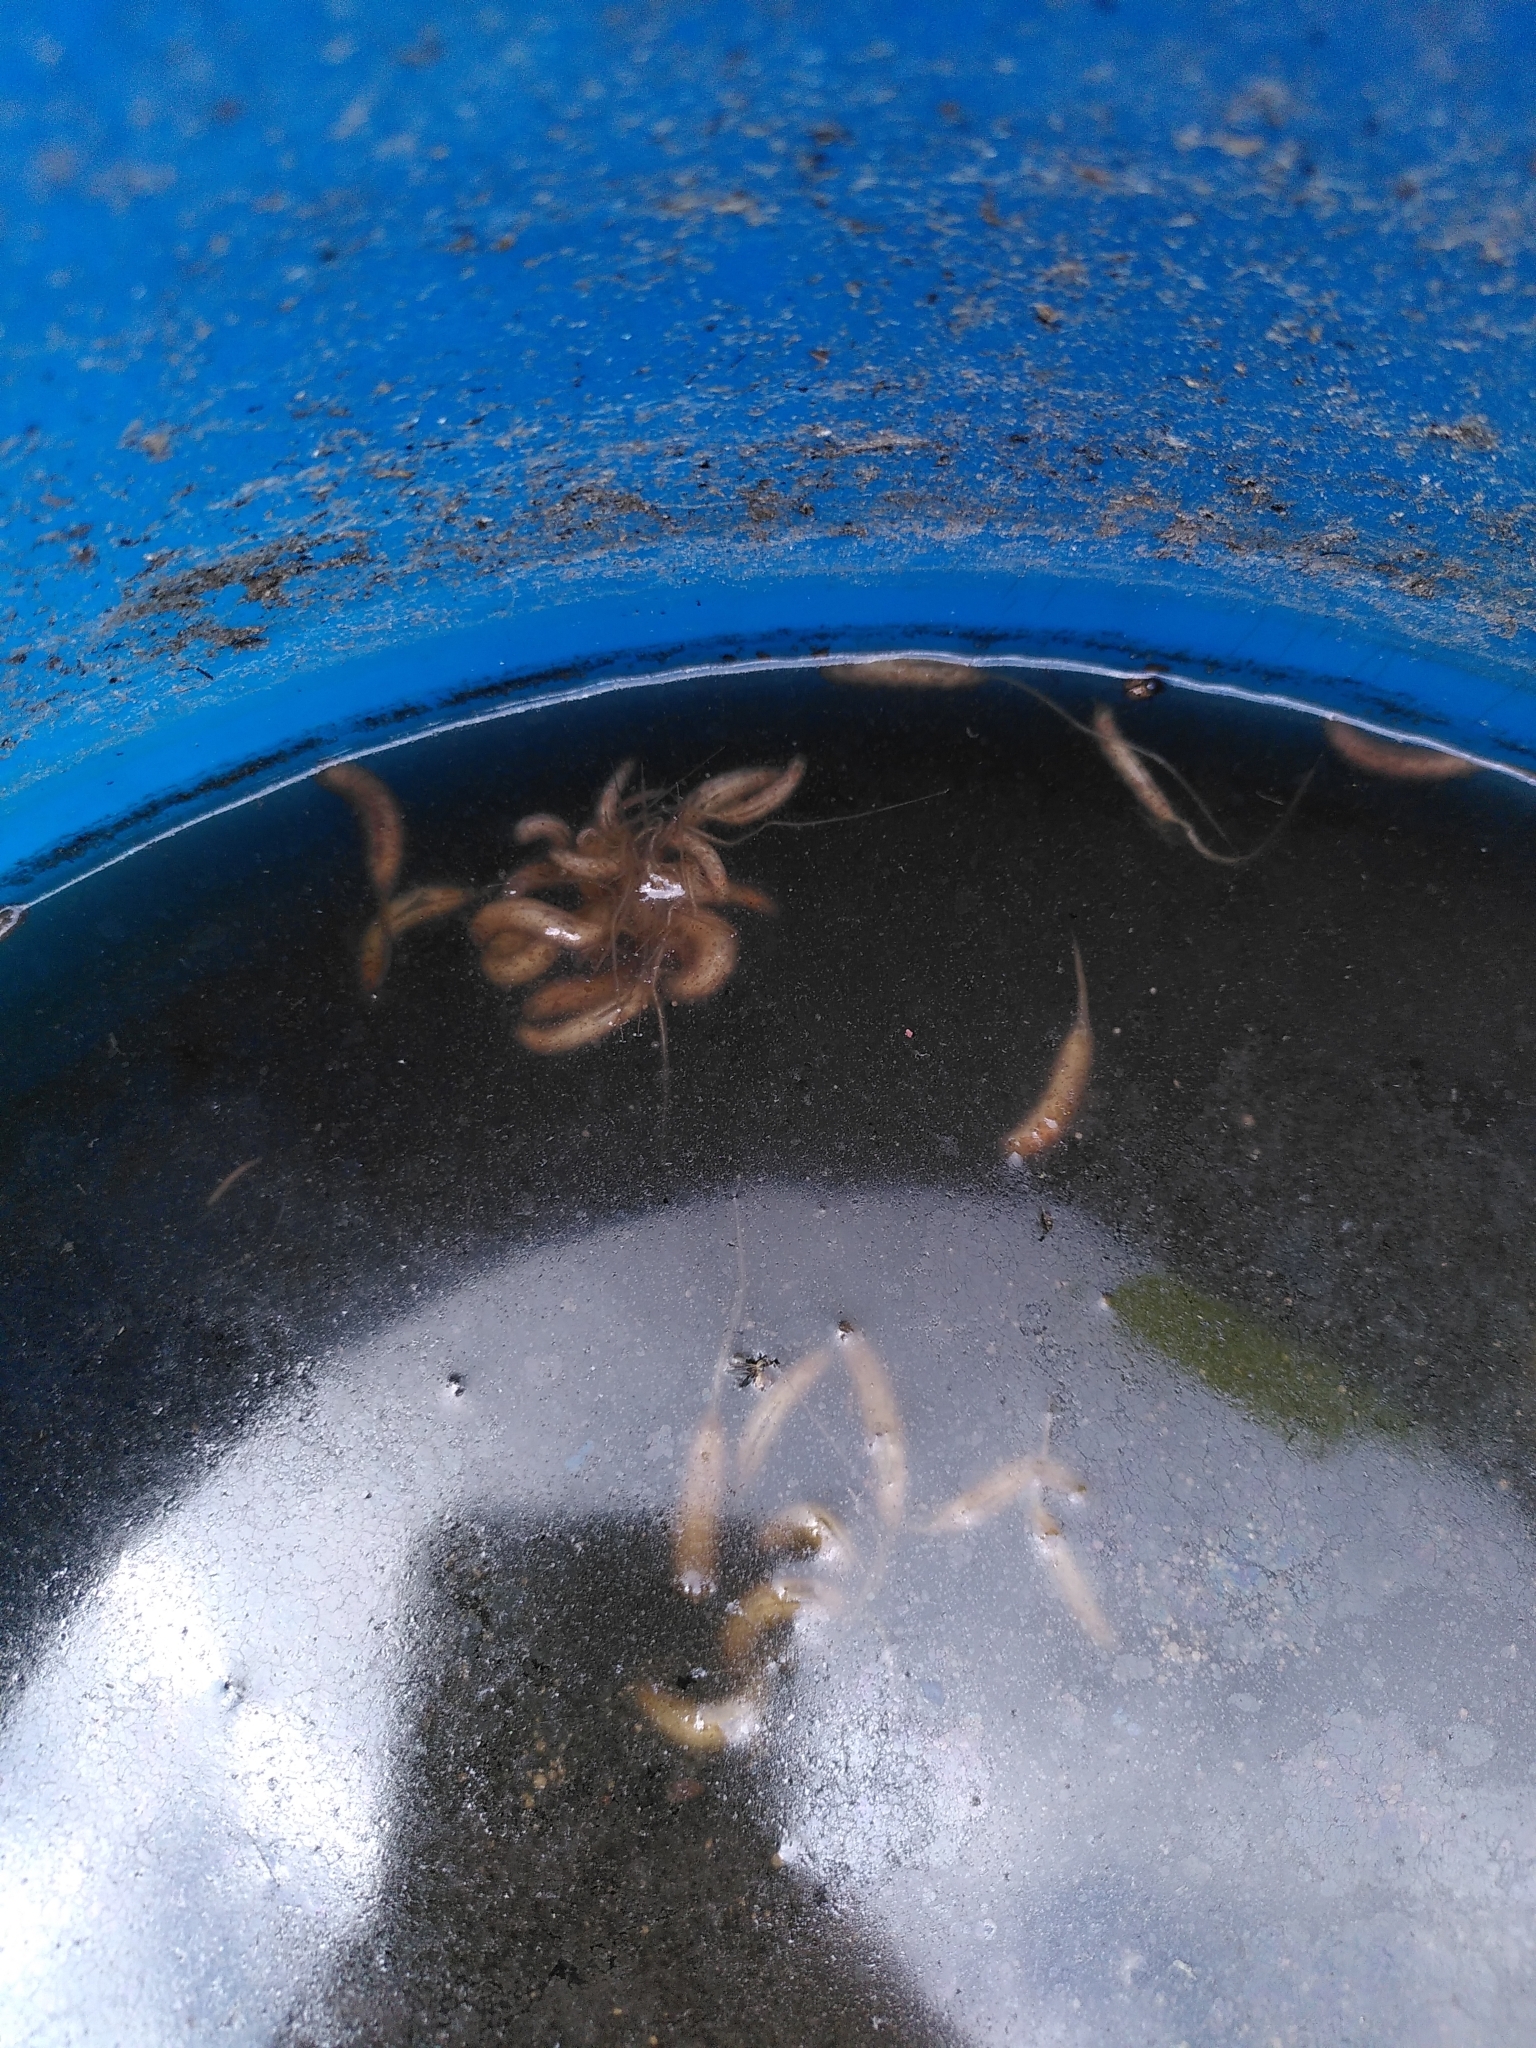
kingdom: Animalia
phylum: Arthropoda
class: Insecta
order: Diptera
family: Syrphidae
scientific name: Syrphidae
